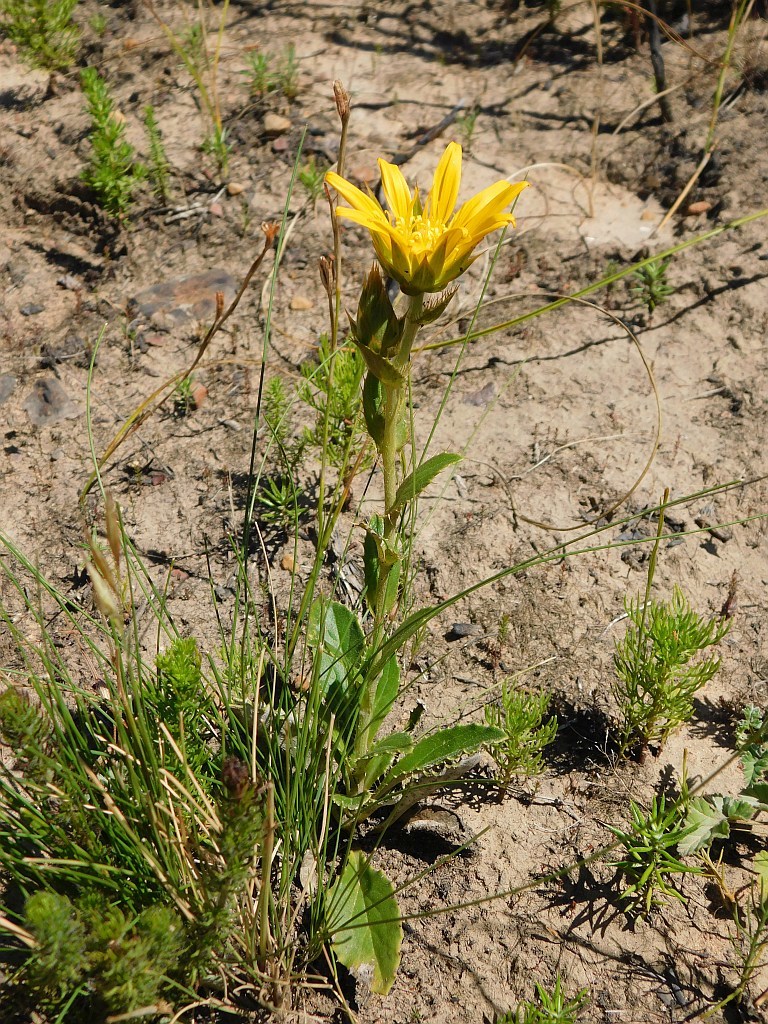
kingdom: Plantae
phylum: Tracheophyta
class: Magnoliopsida
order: Asterales
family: Asteraceae
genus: Berkheya
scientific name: Berkheya herbacea
